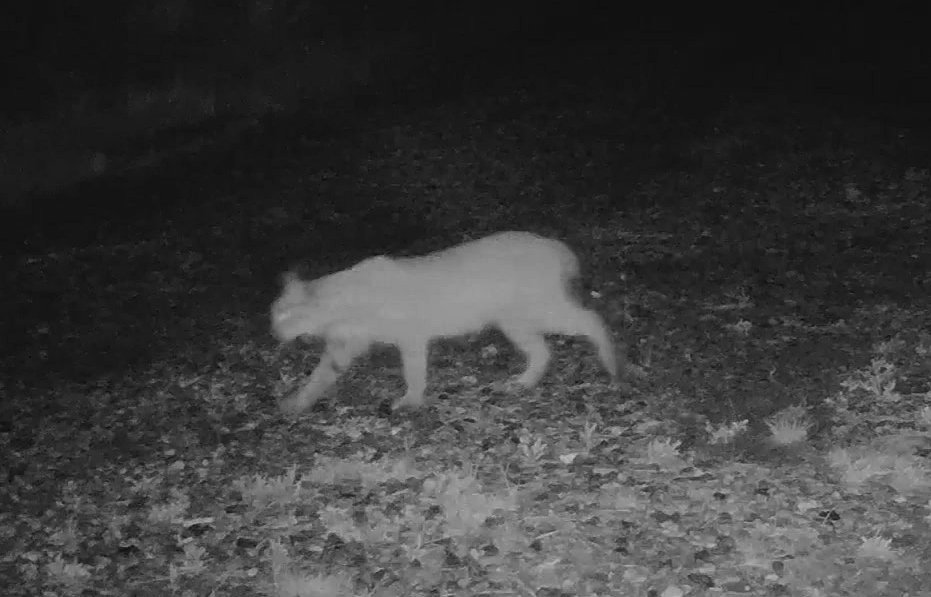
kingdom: Animalia
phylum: Chordata
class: Mammalia
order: Carnivora
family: Felidae
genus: Lynx
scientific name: Lynx rufus
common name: Bobcat
